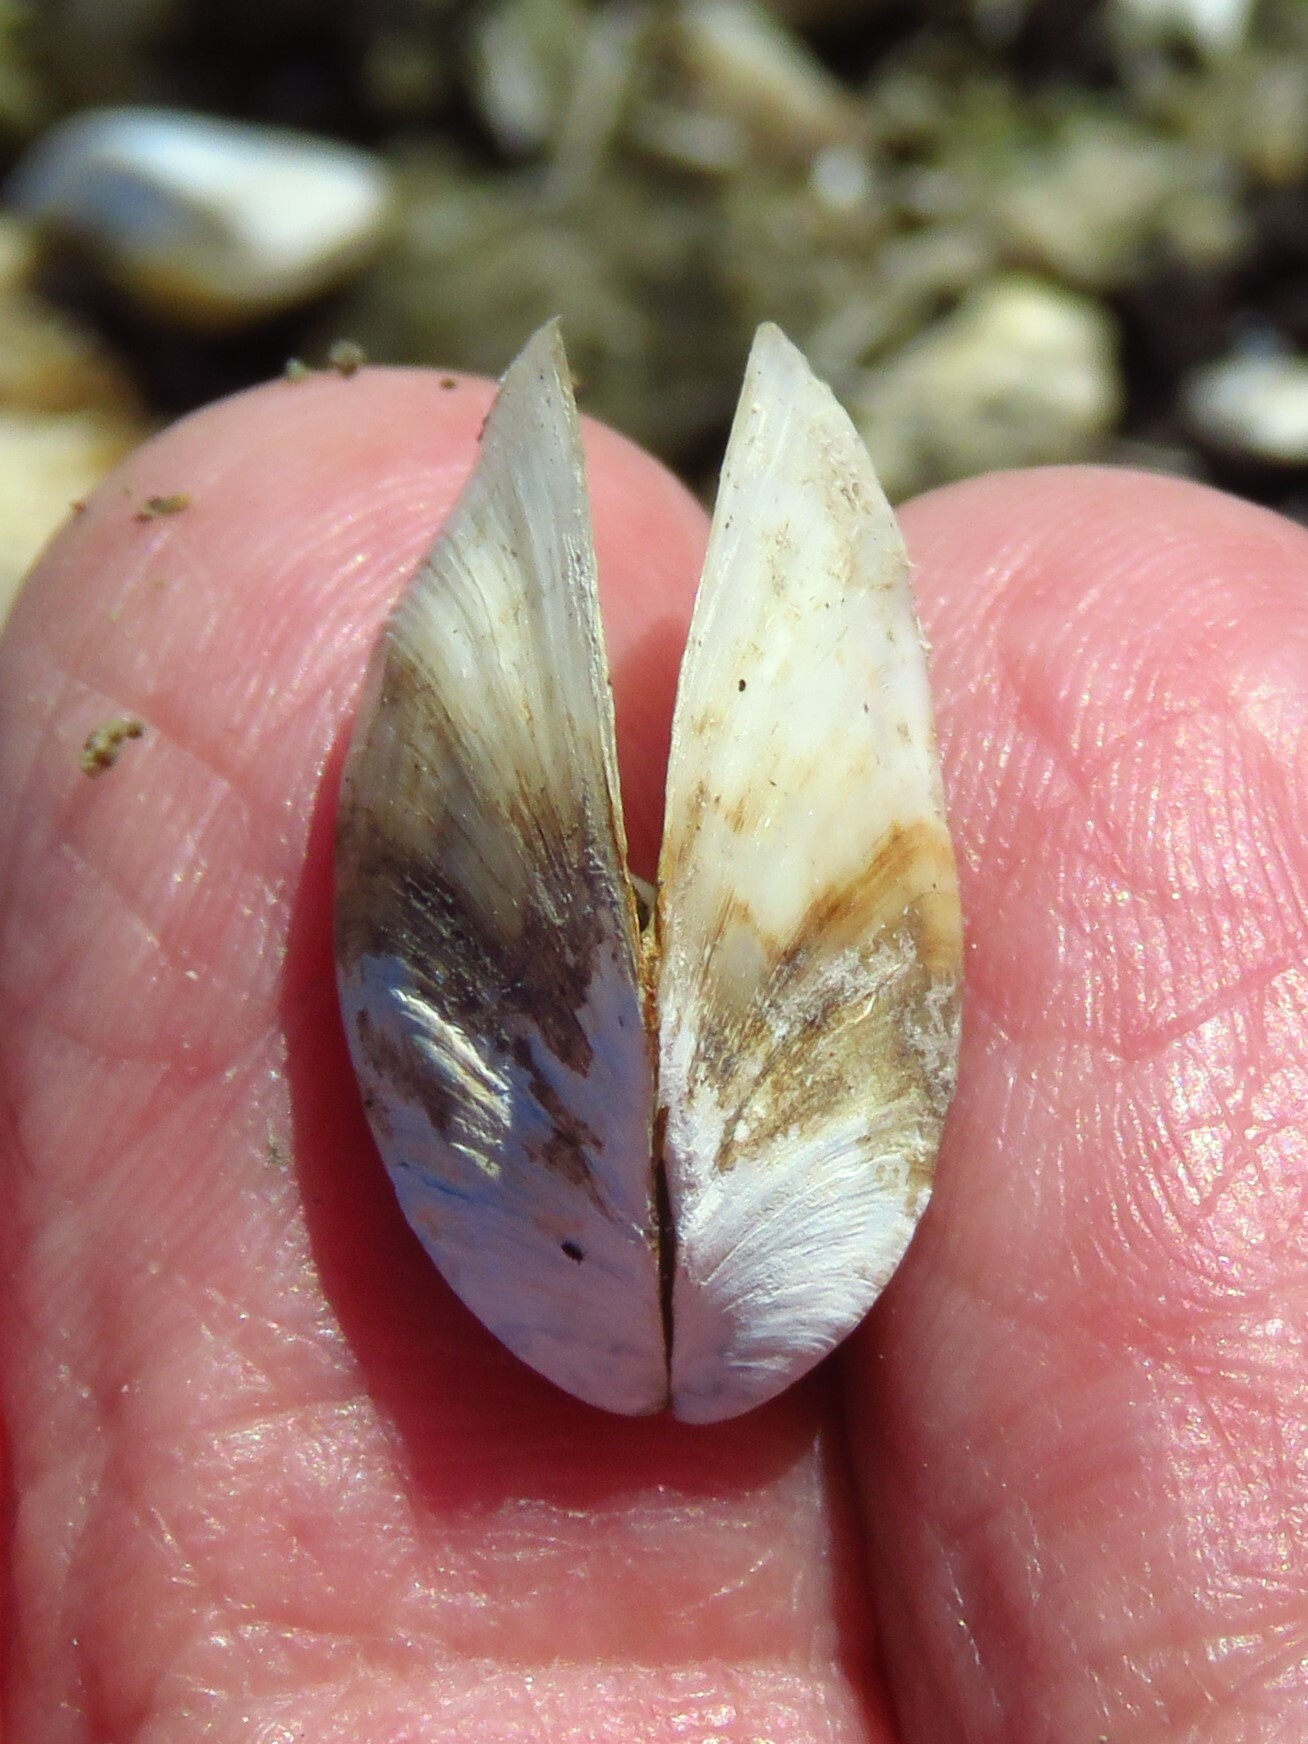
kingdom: Animalia
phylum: Mollusca
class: Bivalvia
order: Myida
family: Dreissenidae
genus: Dreissena
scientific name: Dreissena polymorpha
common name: Zebra mussel
